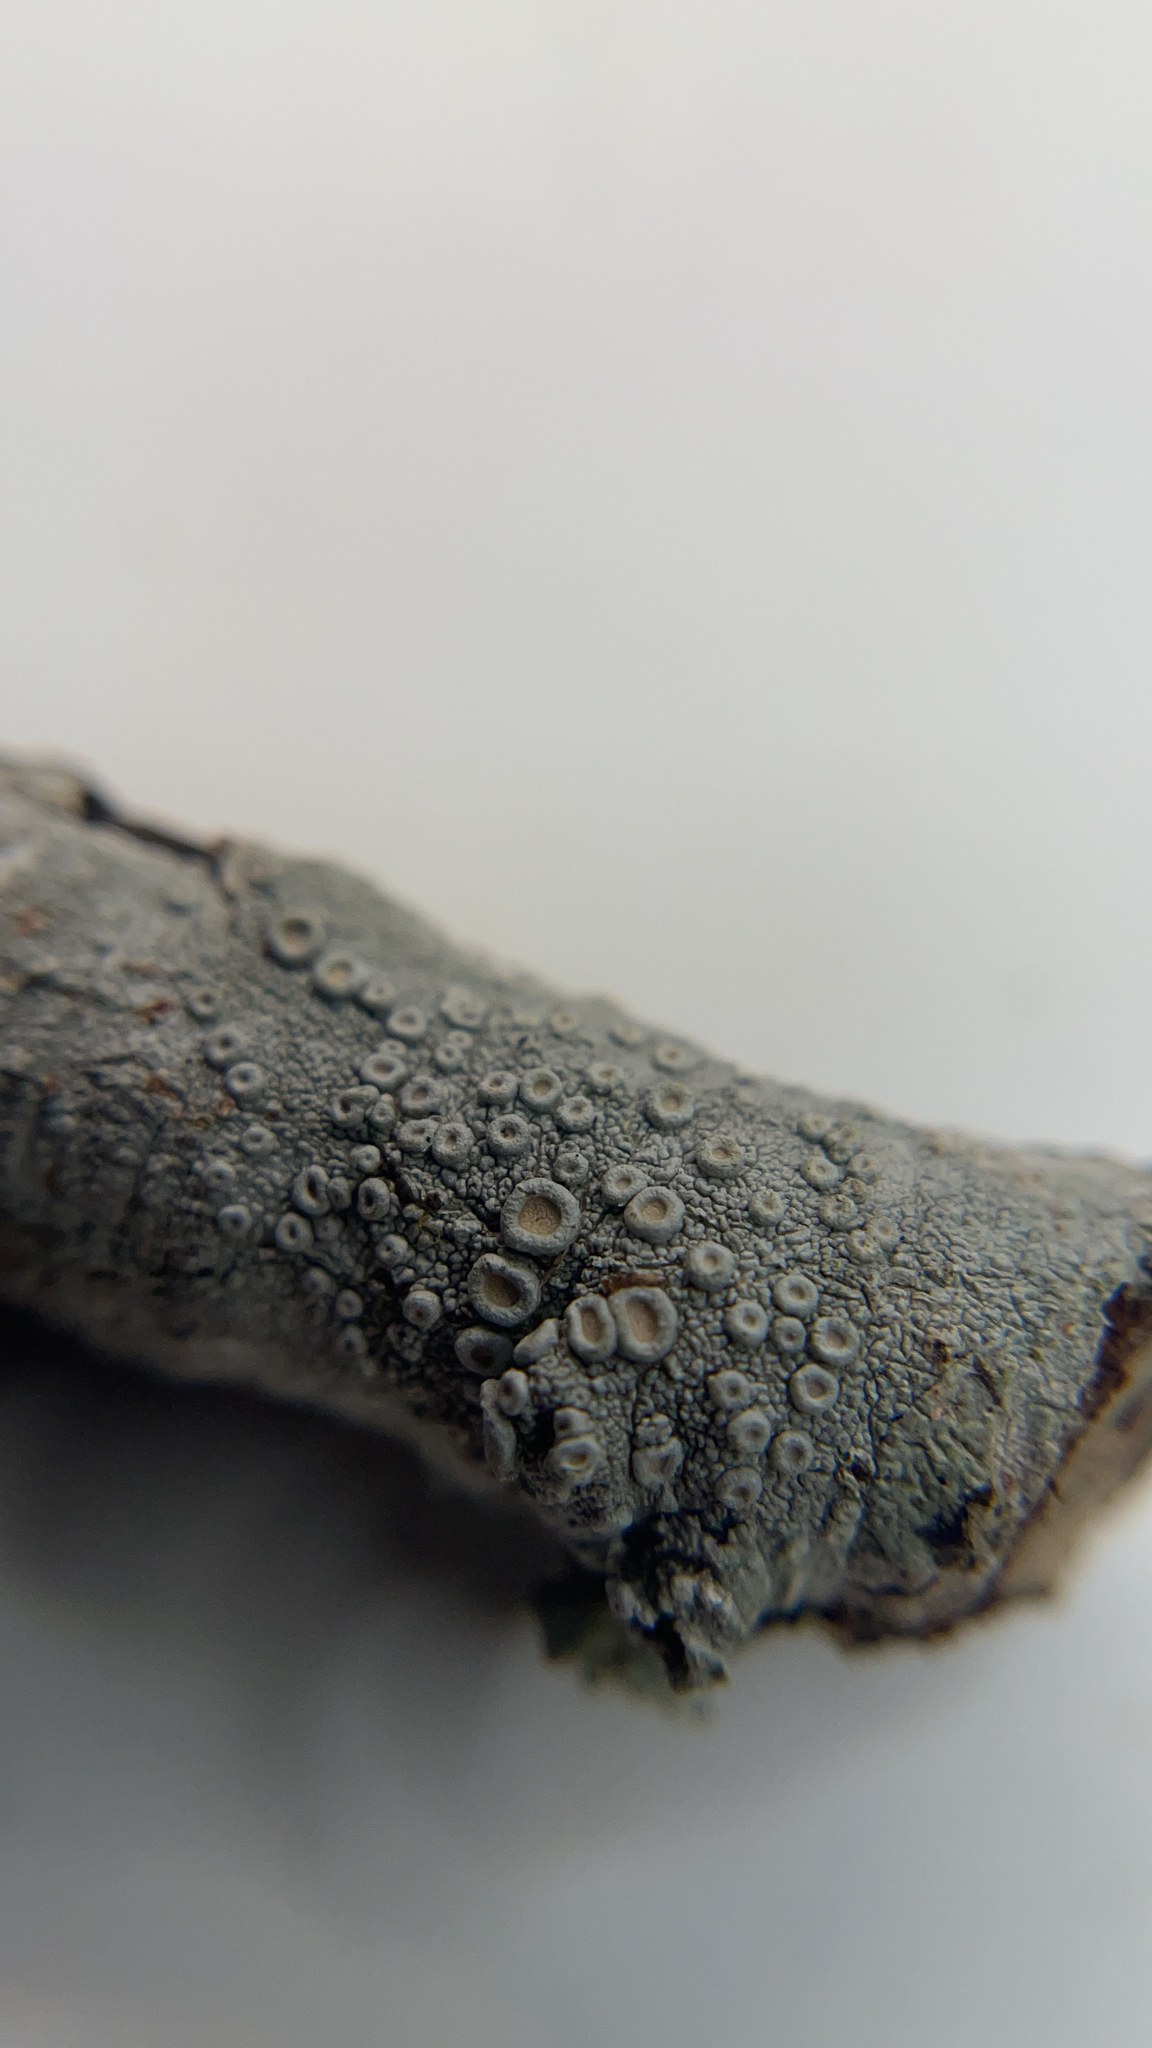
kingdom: Fungi
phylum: Ascomycota
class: Lecanoromycetes
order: Pertusariales
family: Ochrolechiaceae
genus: Ochrolechia
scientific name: Ochrolechia africana
